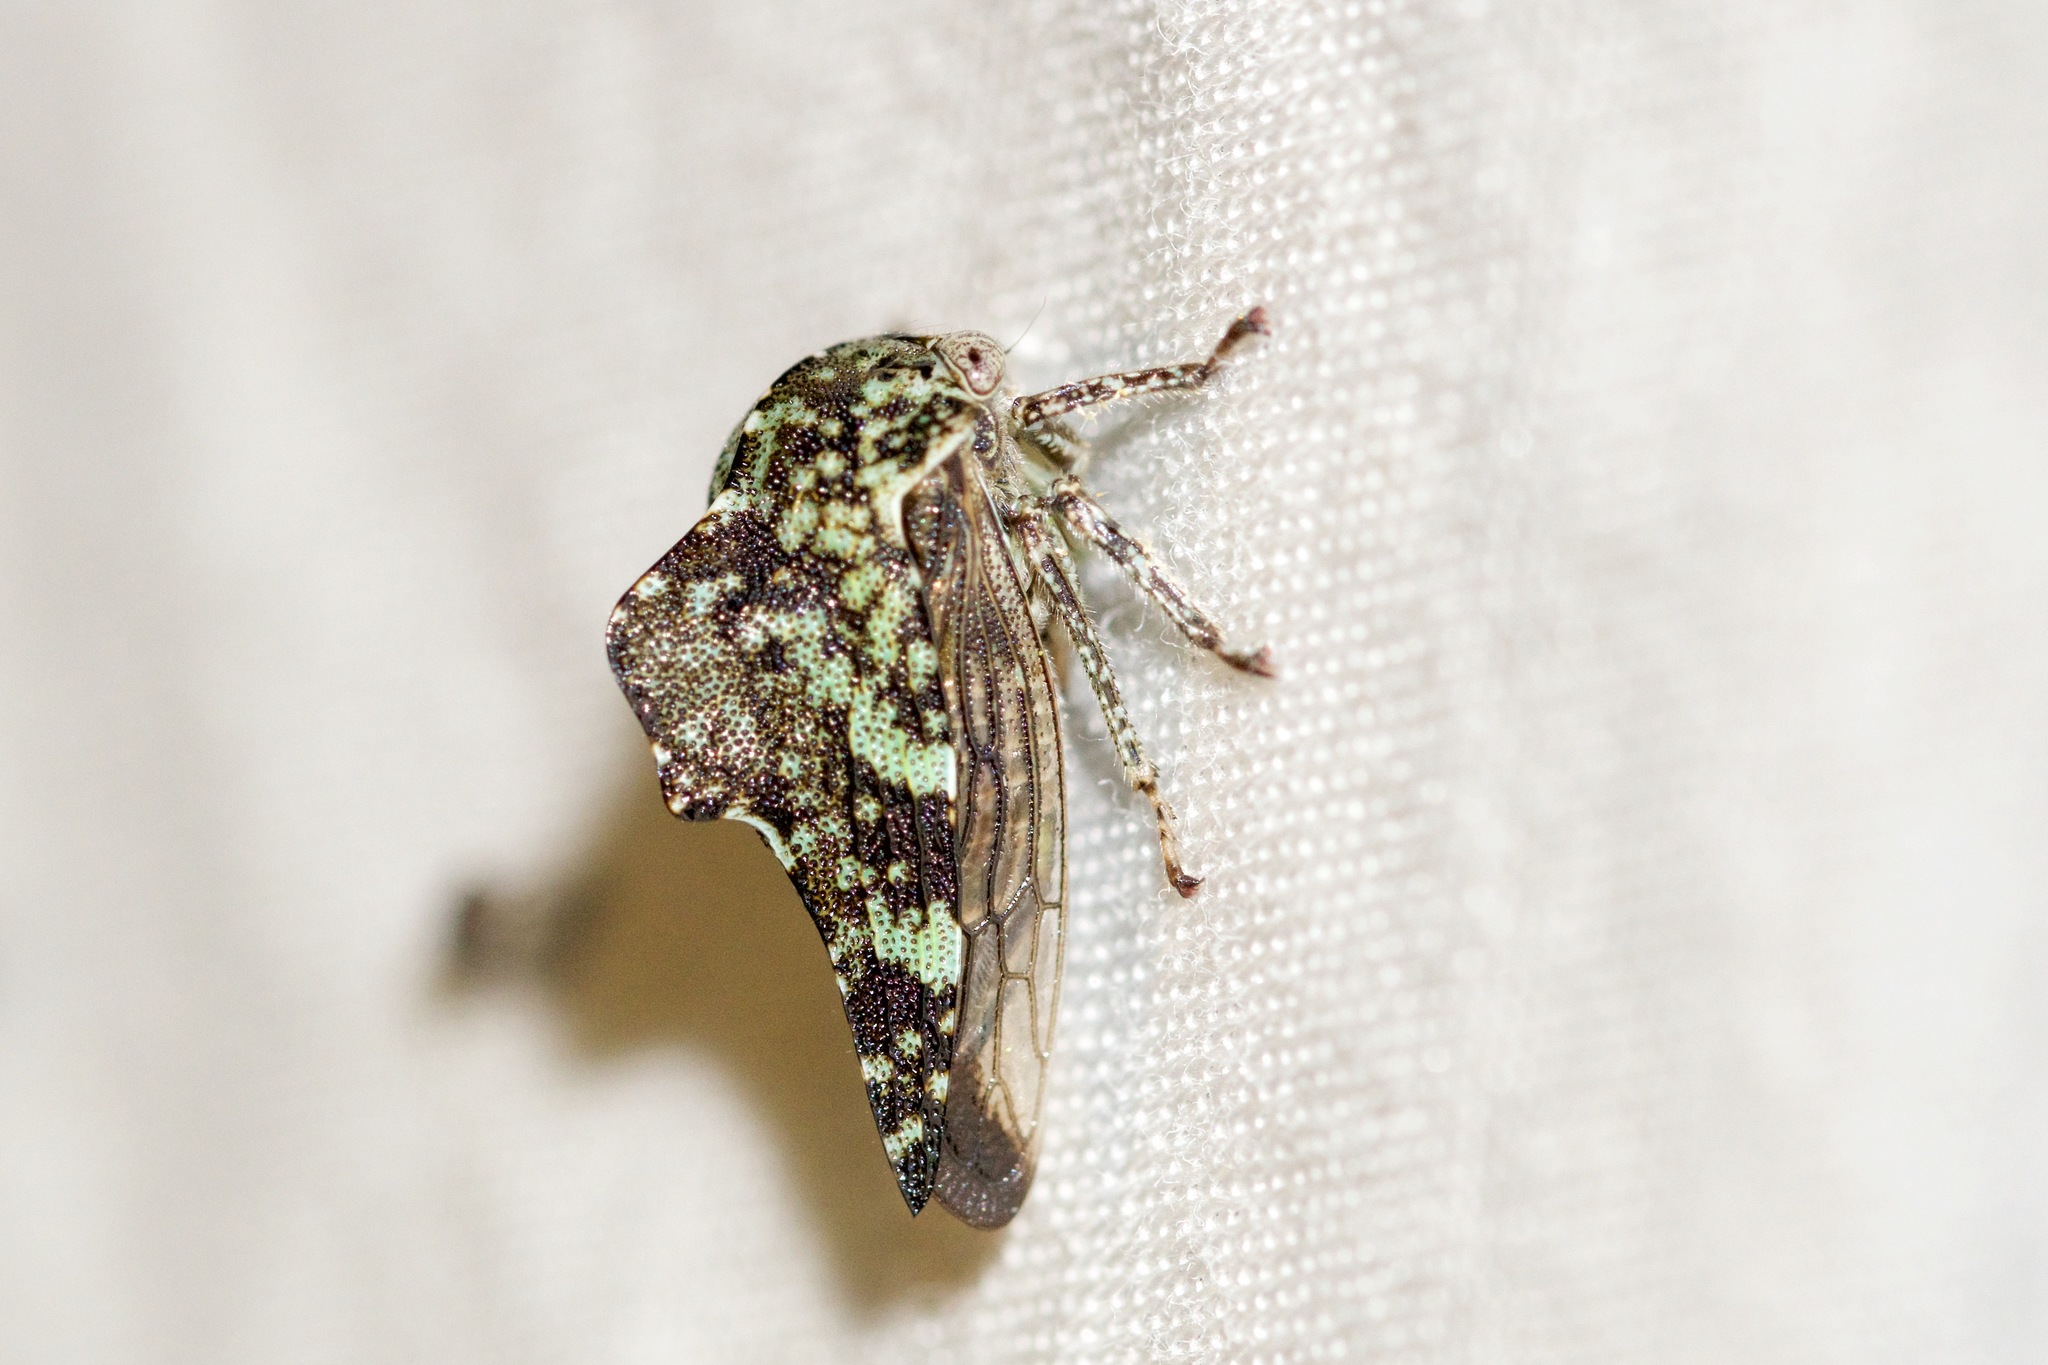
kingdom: Animalia
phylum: Arthropoda
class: Insecta
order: Hemiptera
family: Membracidae
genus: Heliria
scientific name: Heliria fitchi
